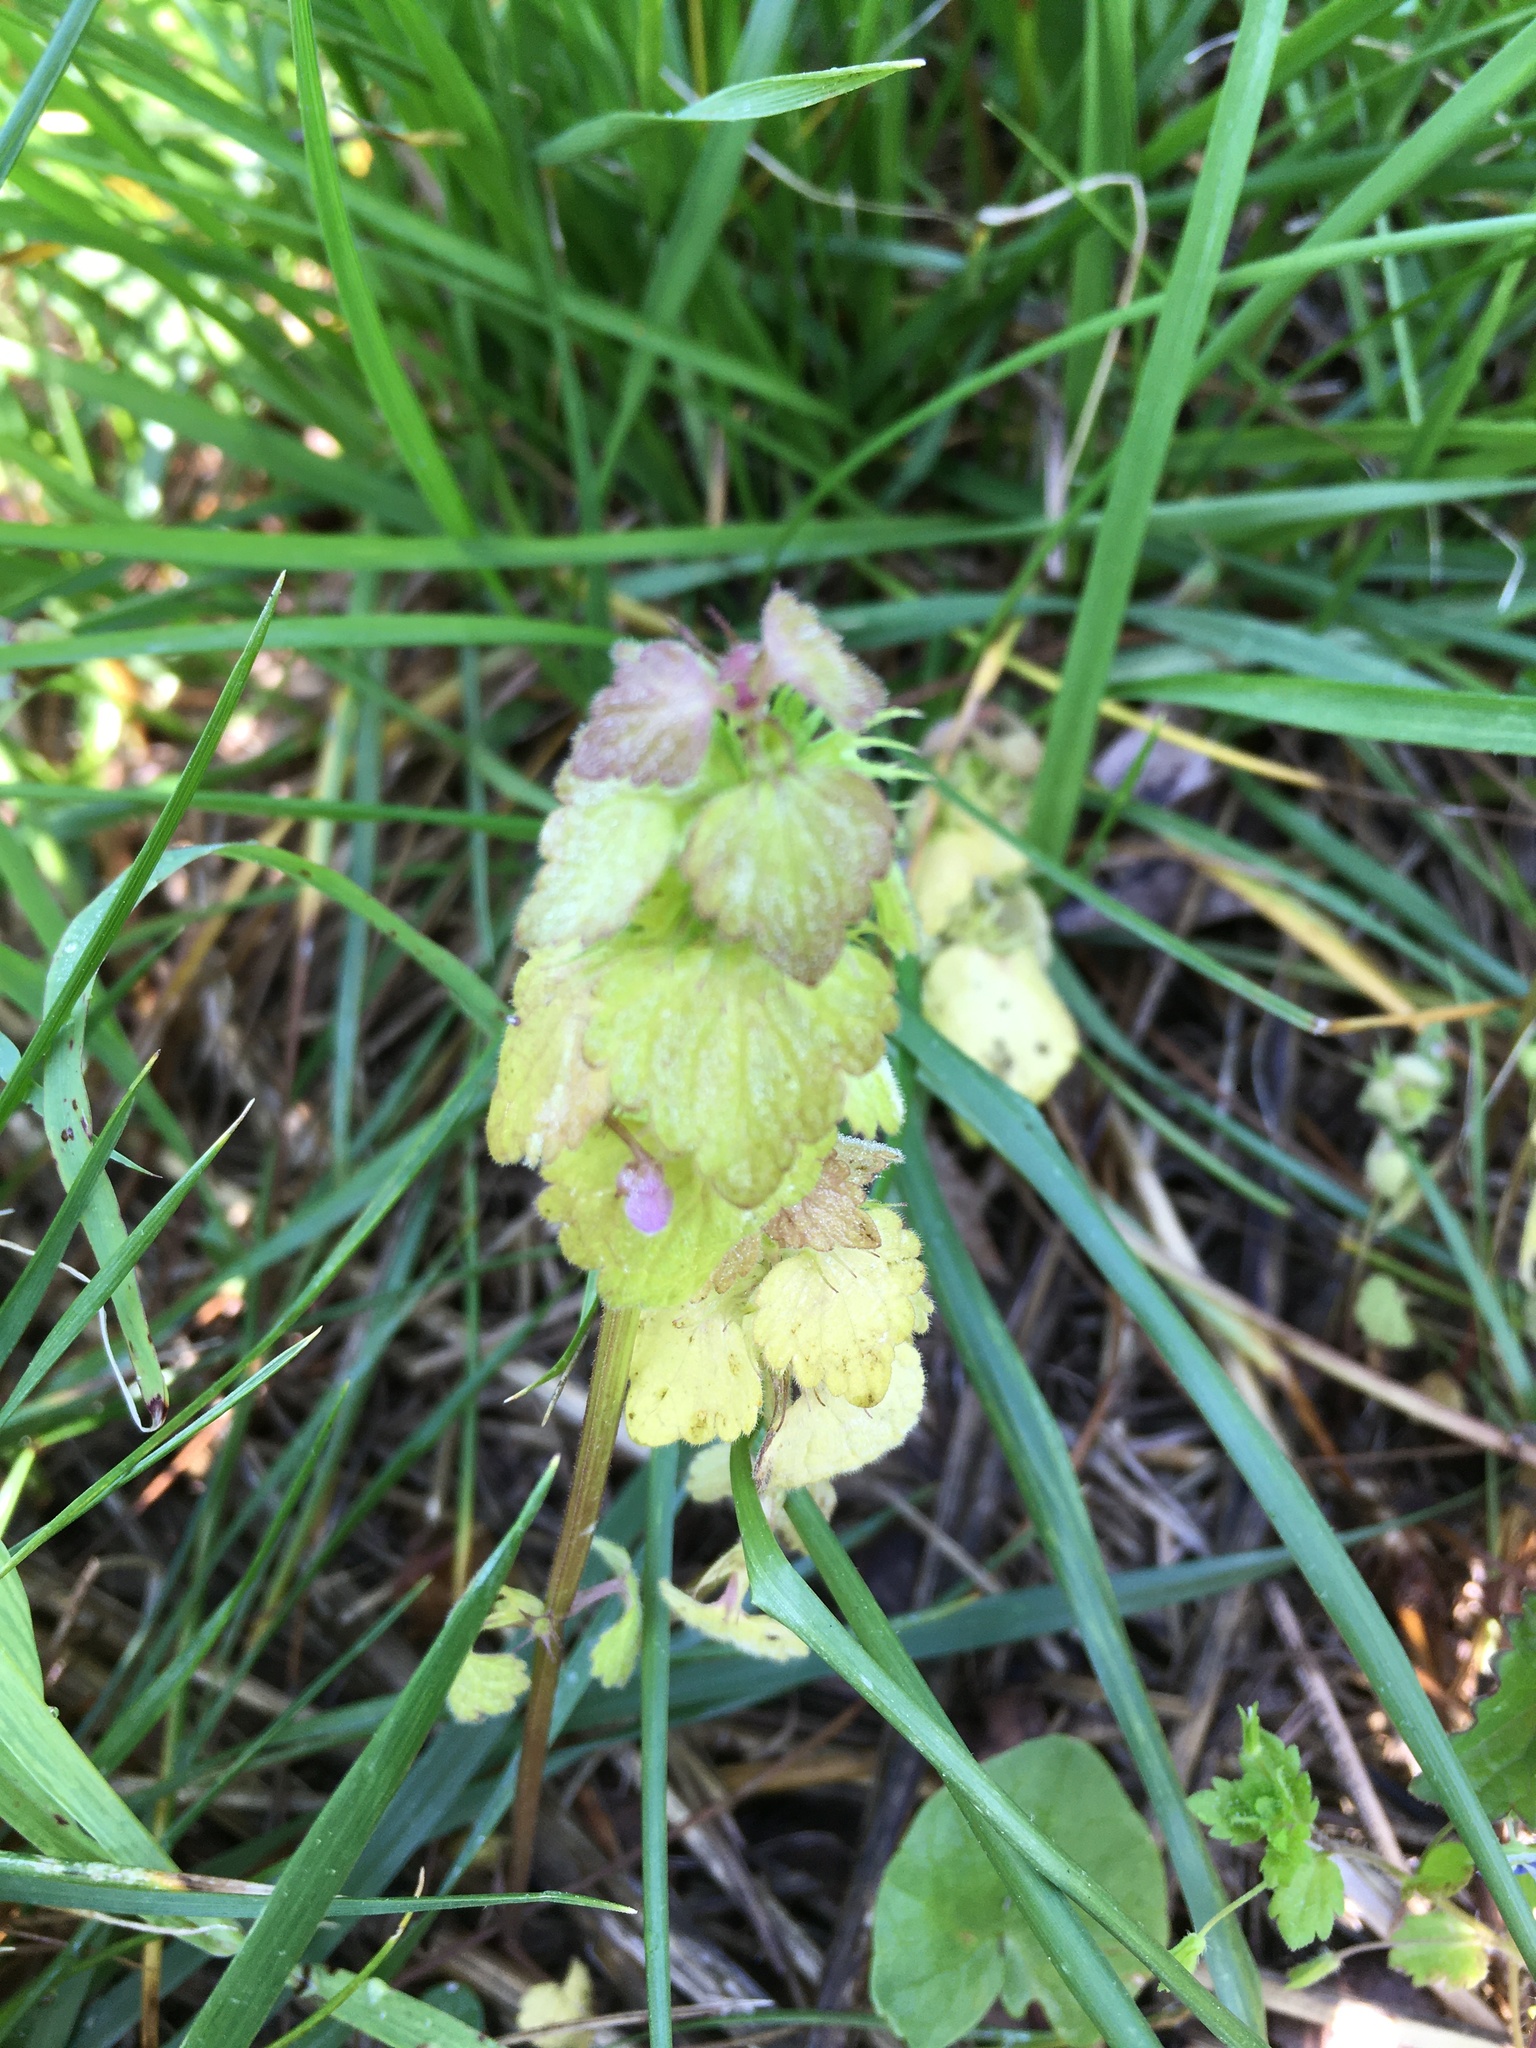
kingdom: Plantae
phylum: Tracheophyta
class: Magnoliopsida
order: Lamiales
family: Lamiaceae
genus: Lamium
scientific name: Lamium purpureum
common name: Red dead-nettle
